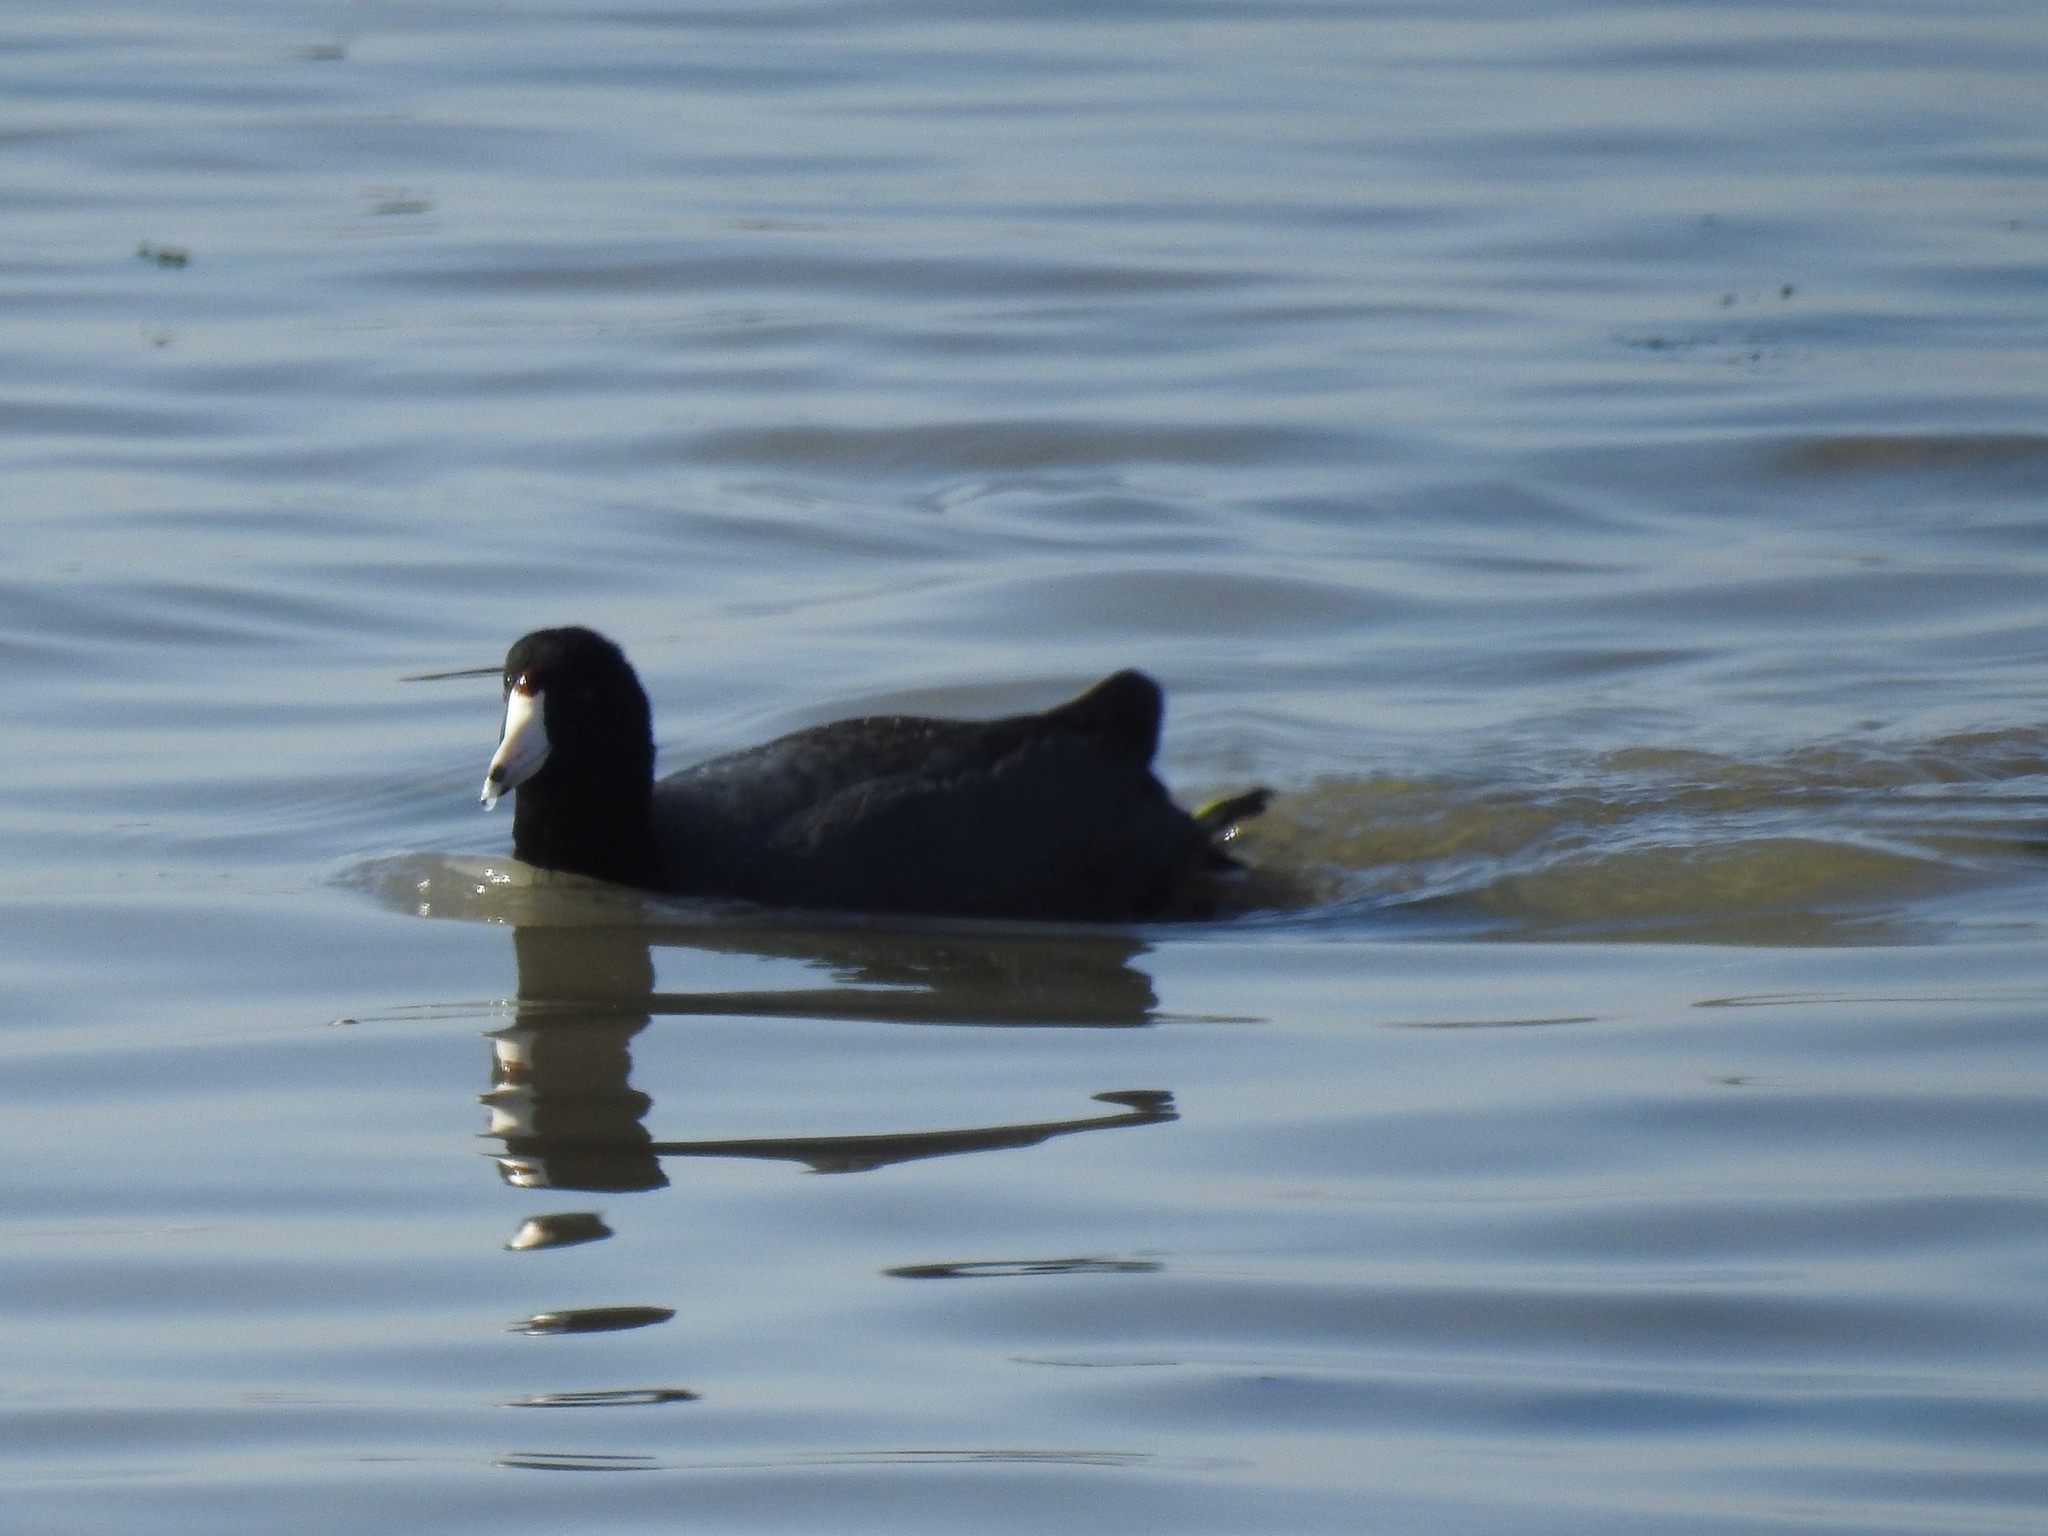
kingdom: Animalia
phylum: Chordata
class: Aves
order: Gruiformes
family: Rallidae
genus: Fulica
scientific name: Fulica americana
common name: American coot
